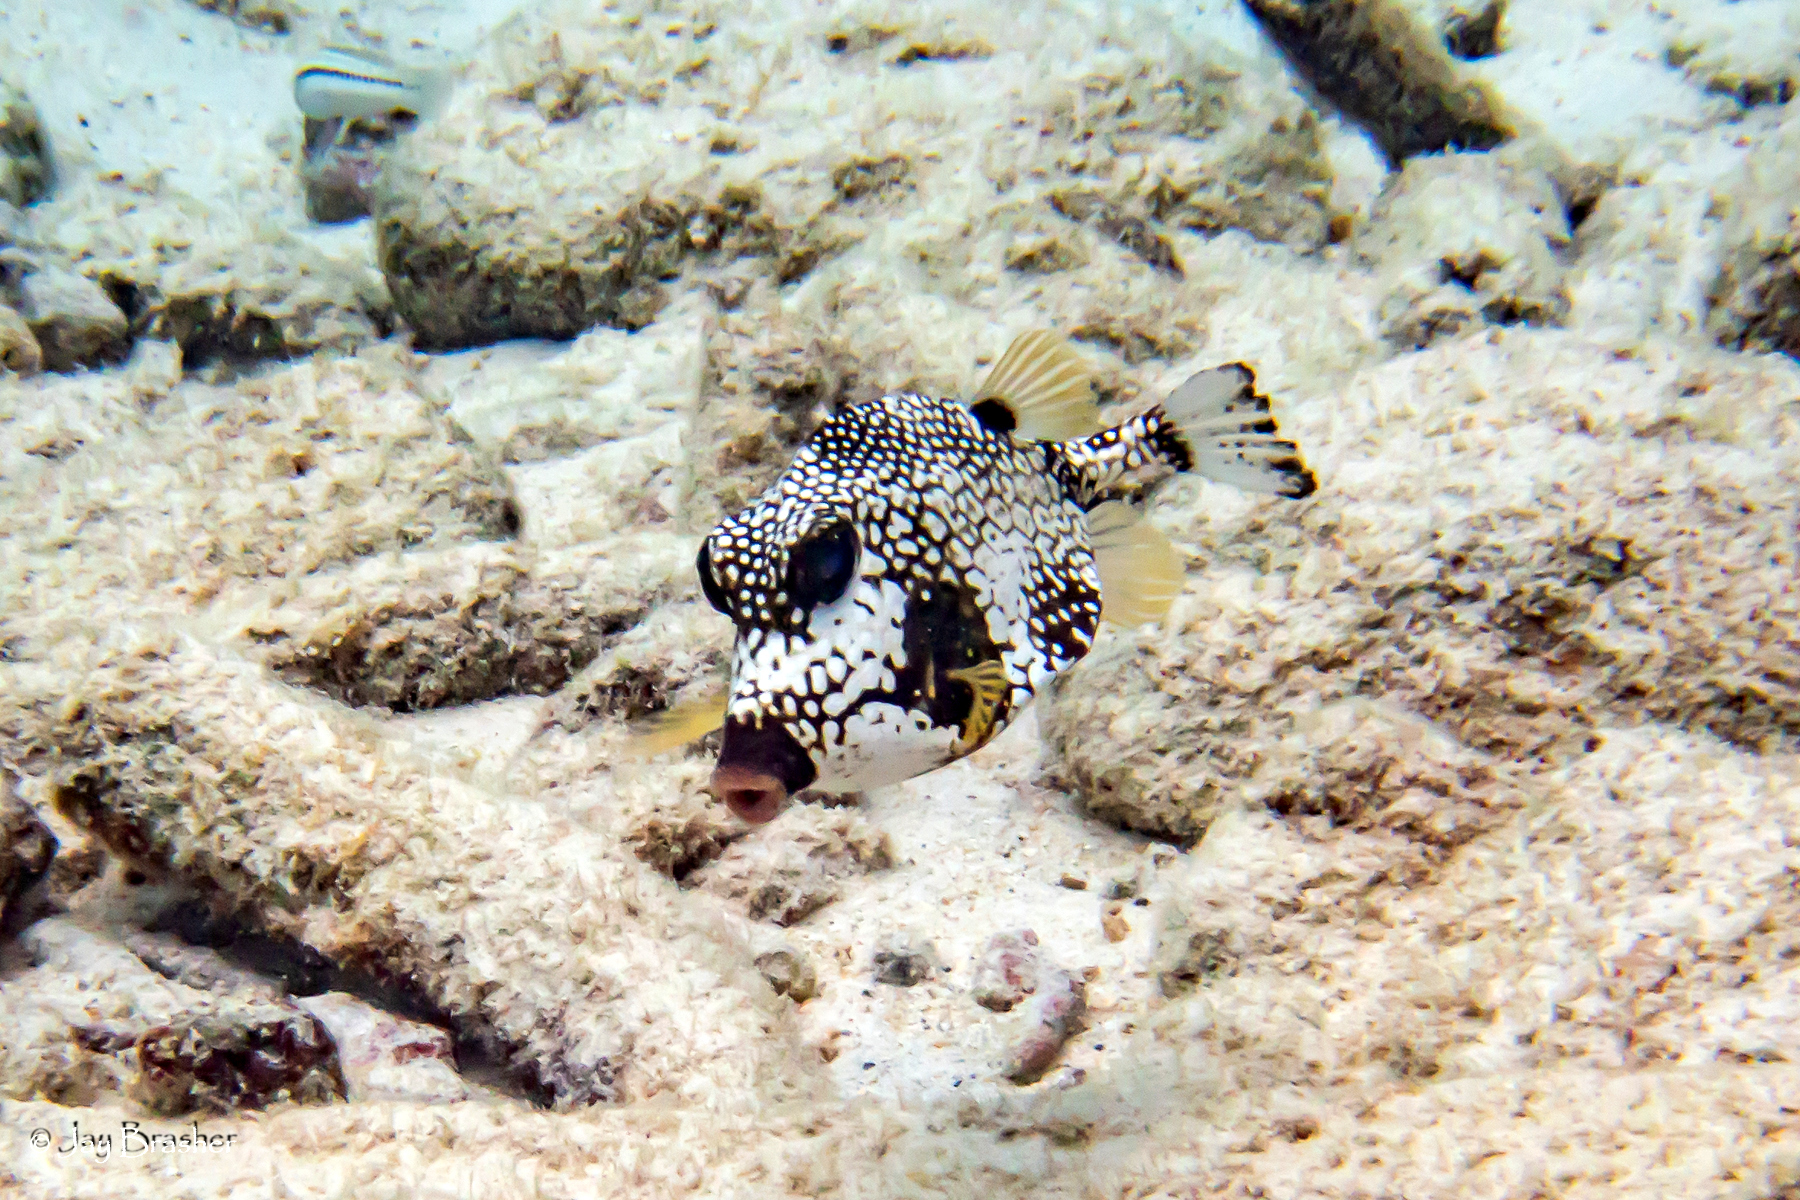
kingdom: Animalia
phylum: Chordata
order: Tetraodontiformes
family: Ostraciidae
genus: Lactophrys
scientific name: Lactophrys triqueter
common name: Smooth trunkfish
